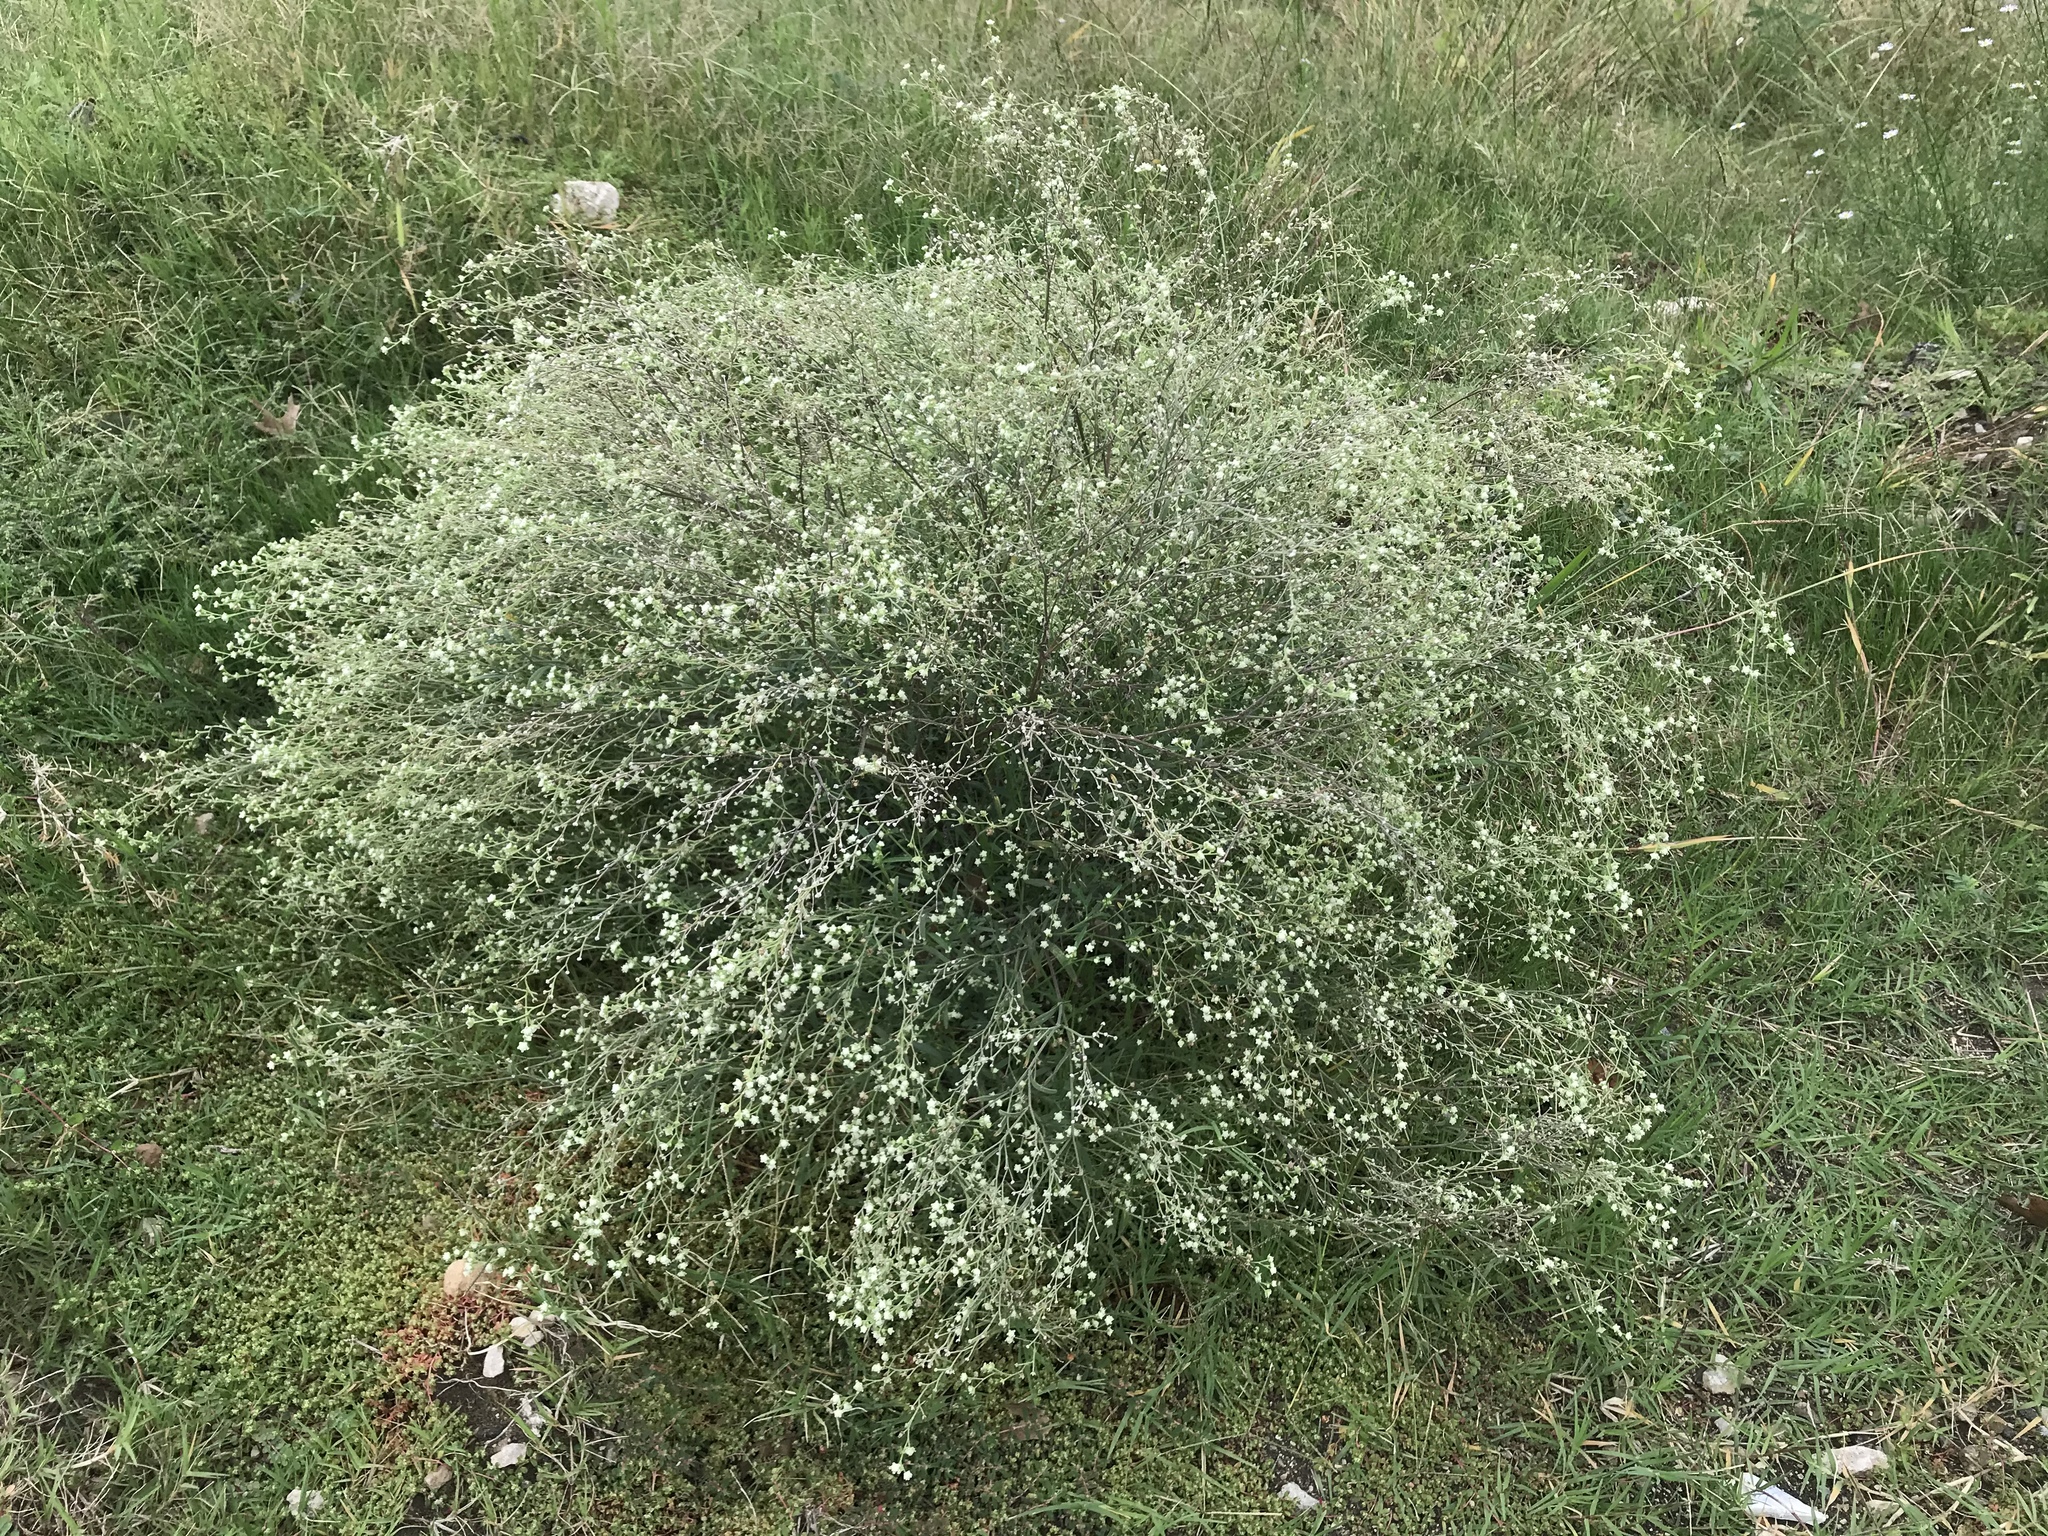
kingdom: Plantae
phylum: Tracheophyta
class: Magnoliopsida
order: Asterales
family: Asteraceae
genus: Parthenium
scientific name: Parthenium hysterophorus
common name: Santa maria feverfew
